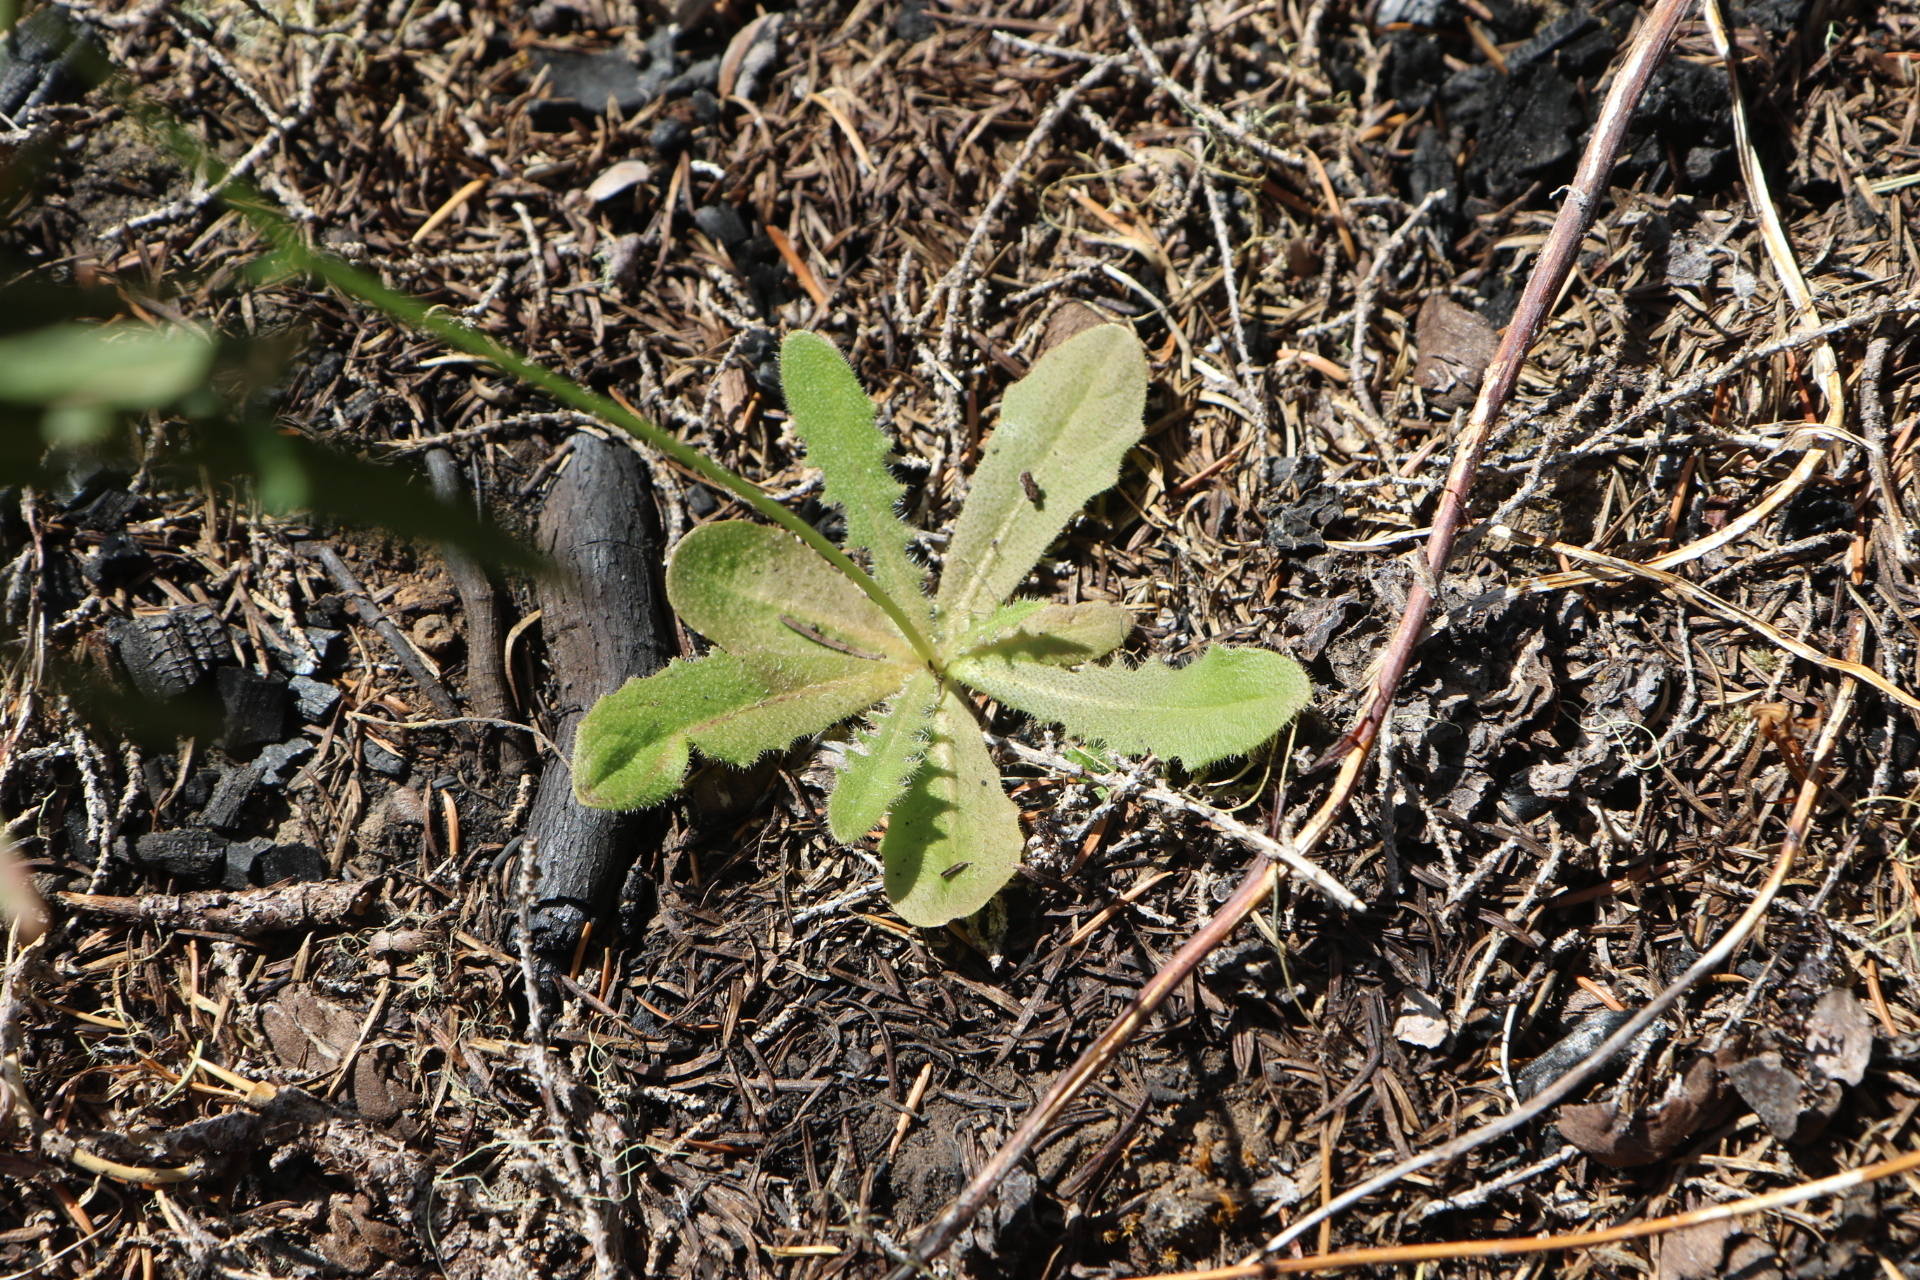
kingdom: Plantae
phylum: Tracheophyta
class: Magnoliopsida
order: Asterales
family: Asteraceae
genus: Hypochaeris
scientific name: Hypochaeris radicata
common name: Flatweed
